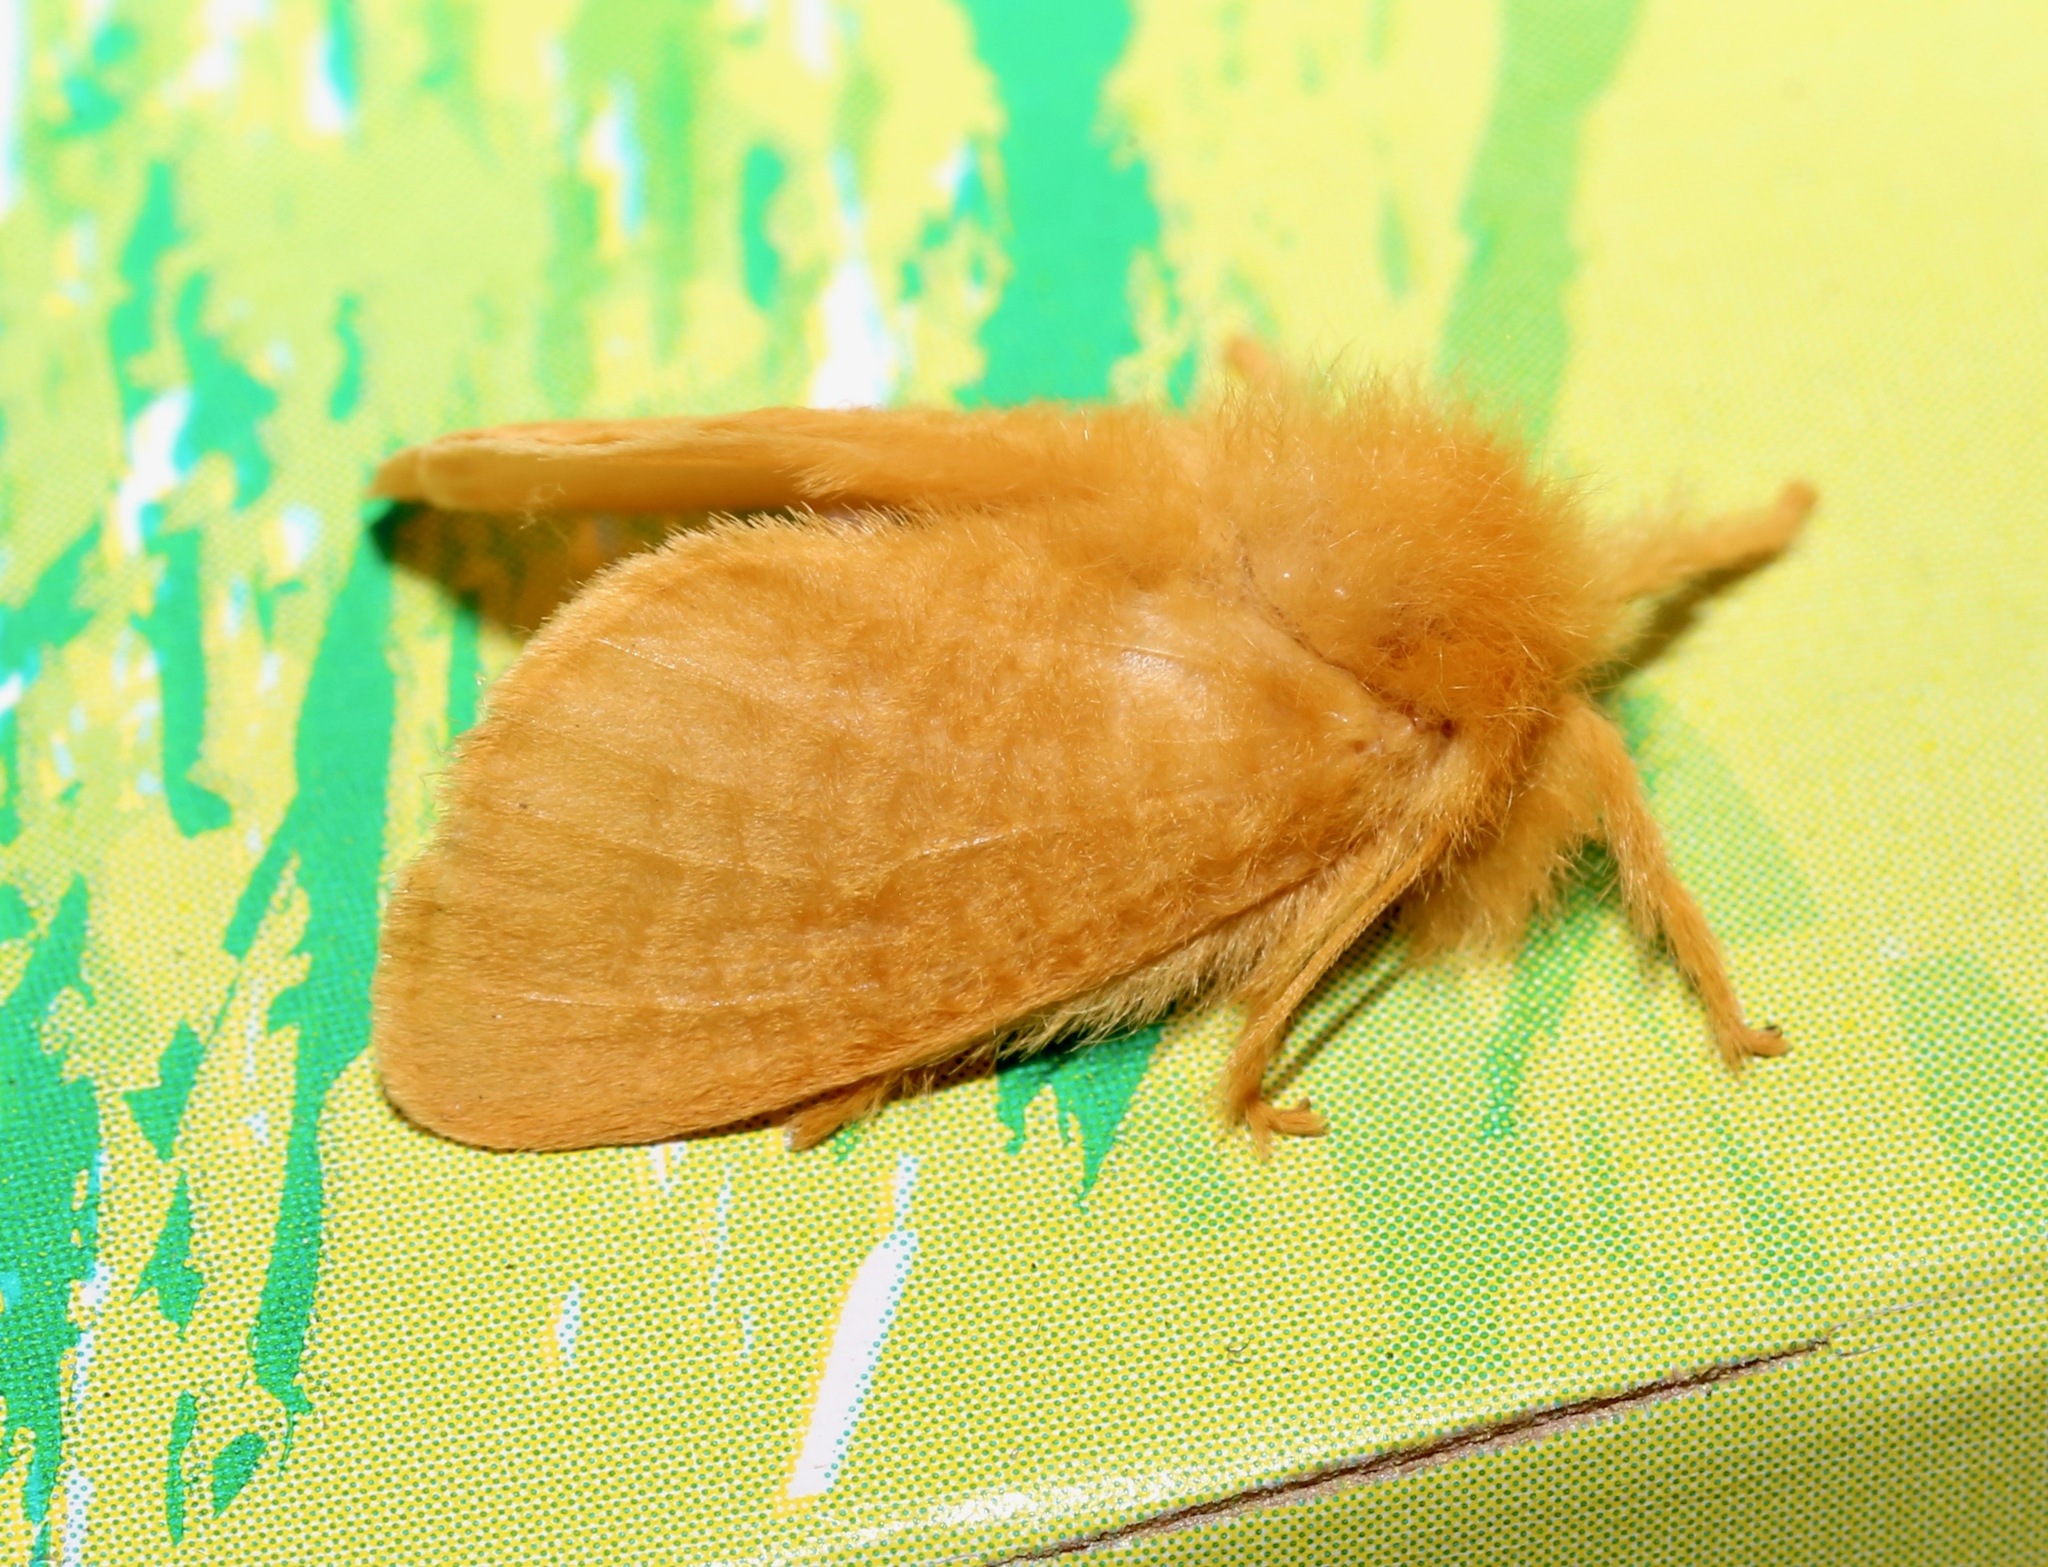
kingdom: Animalia
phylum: Arthropoda
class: Insecta
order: Lepidoptera
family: Megalopygidae
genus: Megalopyge
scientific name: Megalopyge pixidifera
